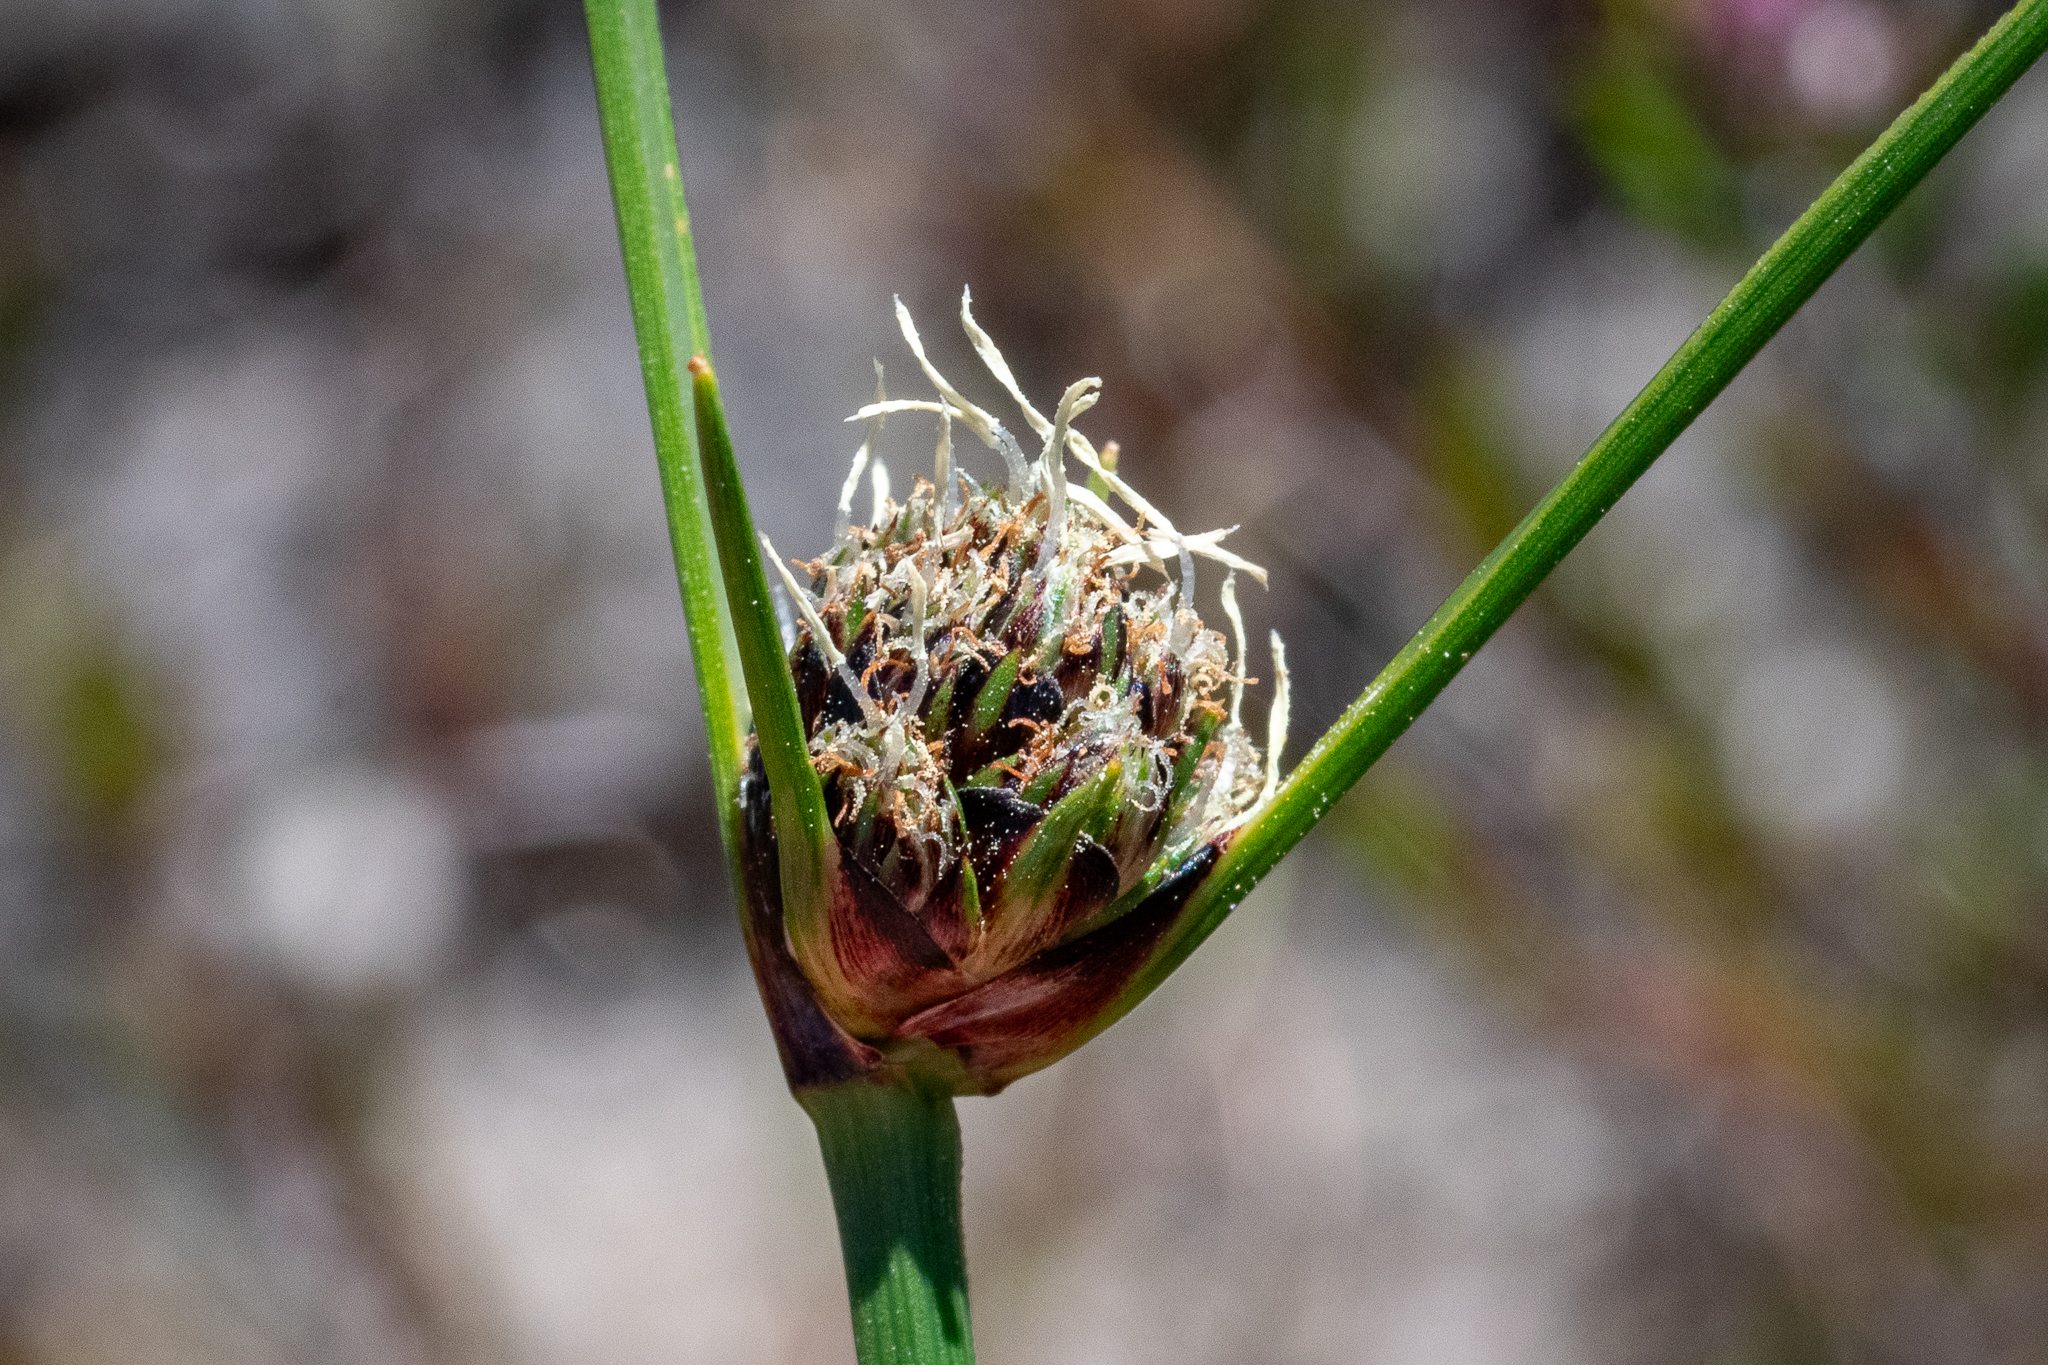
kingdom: Plantae
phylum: Tracheophyta
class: Liliopsida
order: Poales
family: Cyperaceae
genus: Ficinia
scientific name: Ficinia indica
